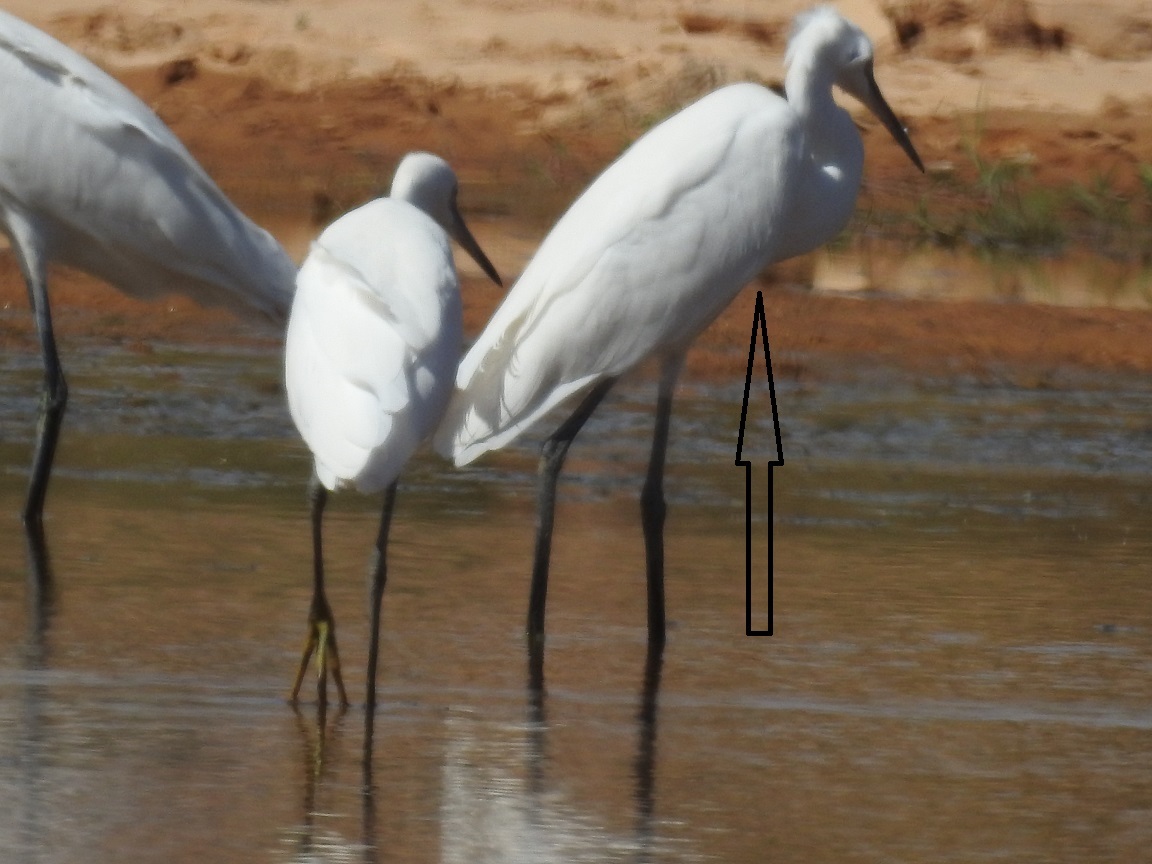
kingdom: Animalia
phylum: Chordata
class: Aves
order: Pelecaniformes
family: Ardeidae
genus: Ardea
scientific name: Ardea alba
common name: Great egret
